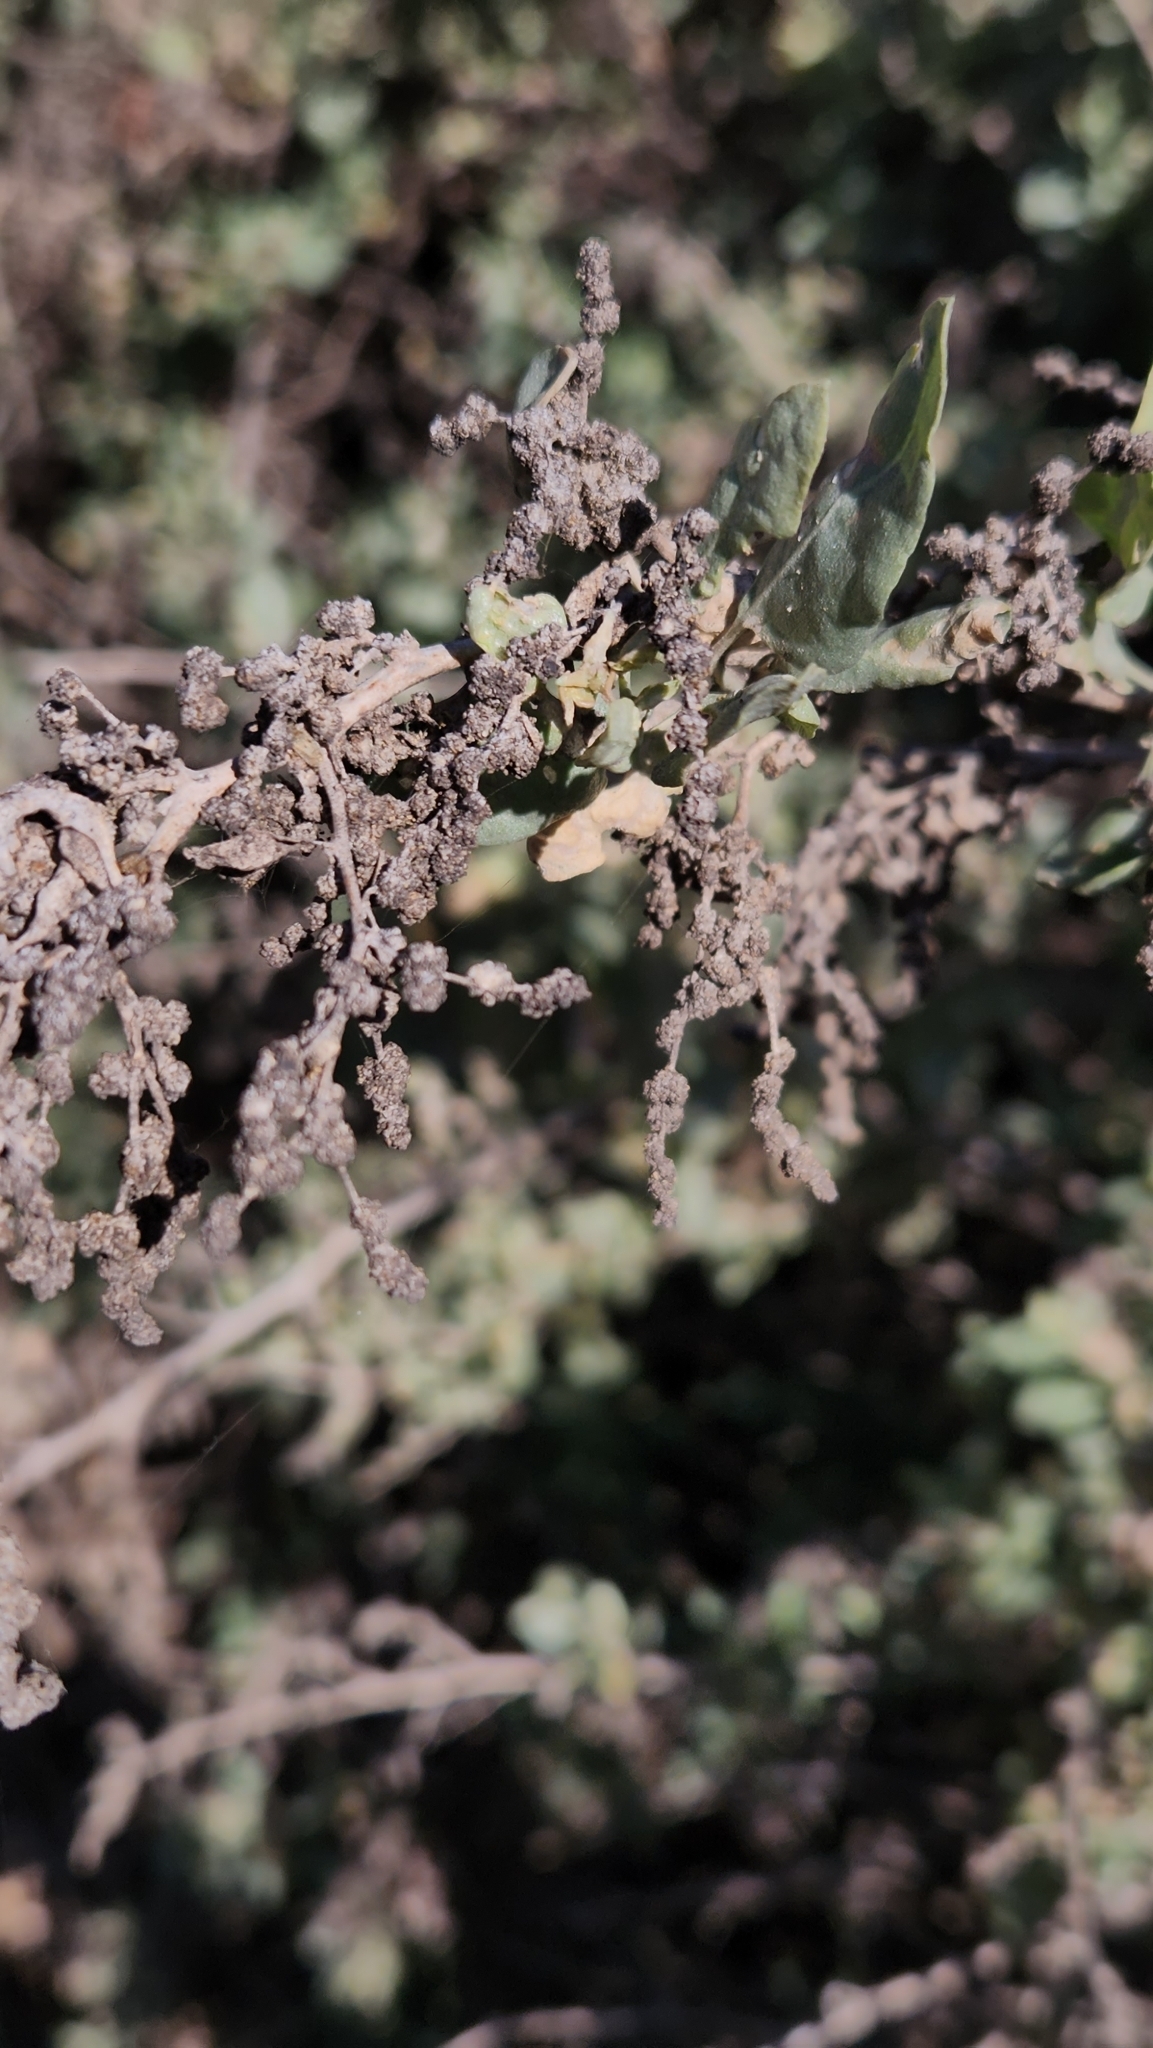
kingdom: Plantae
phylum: Tracheophyta
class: Magnoliopsida
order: Caryophyllales
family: Amaranthaceae
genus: Atriplex
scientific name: Atriplex lentiformis
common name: Big saltbush
